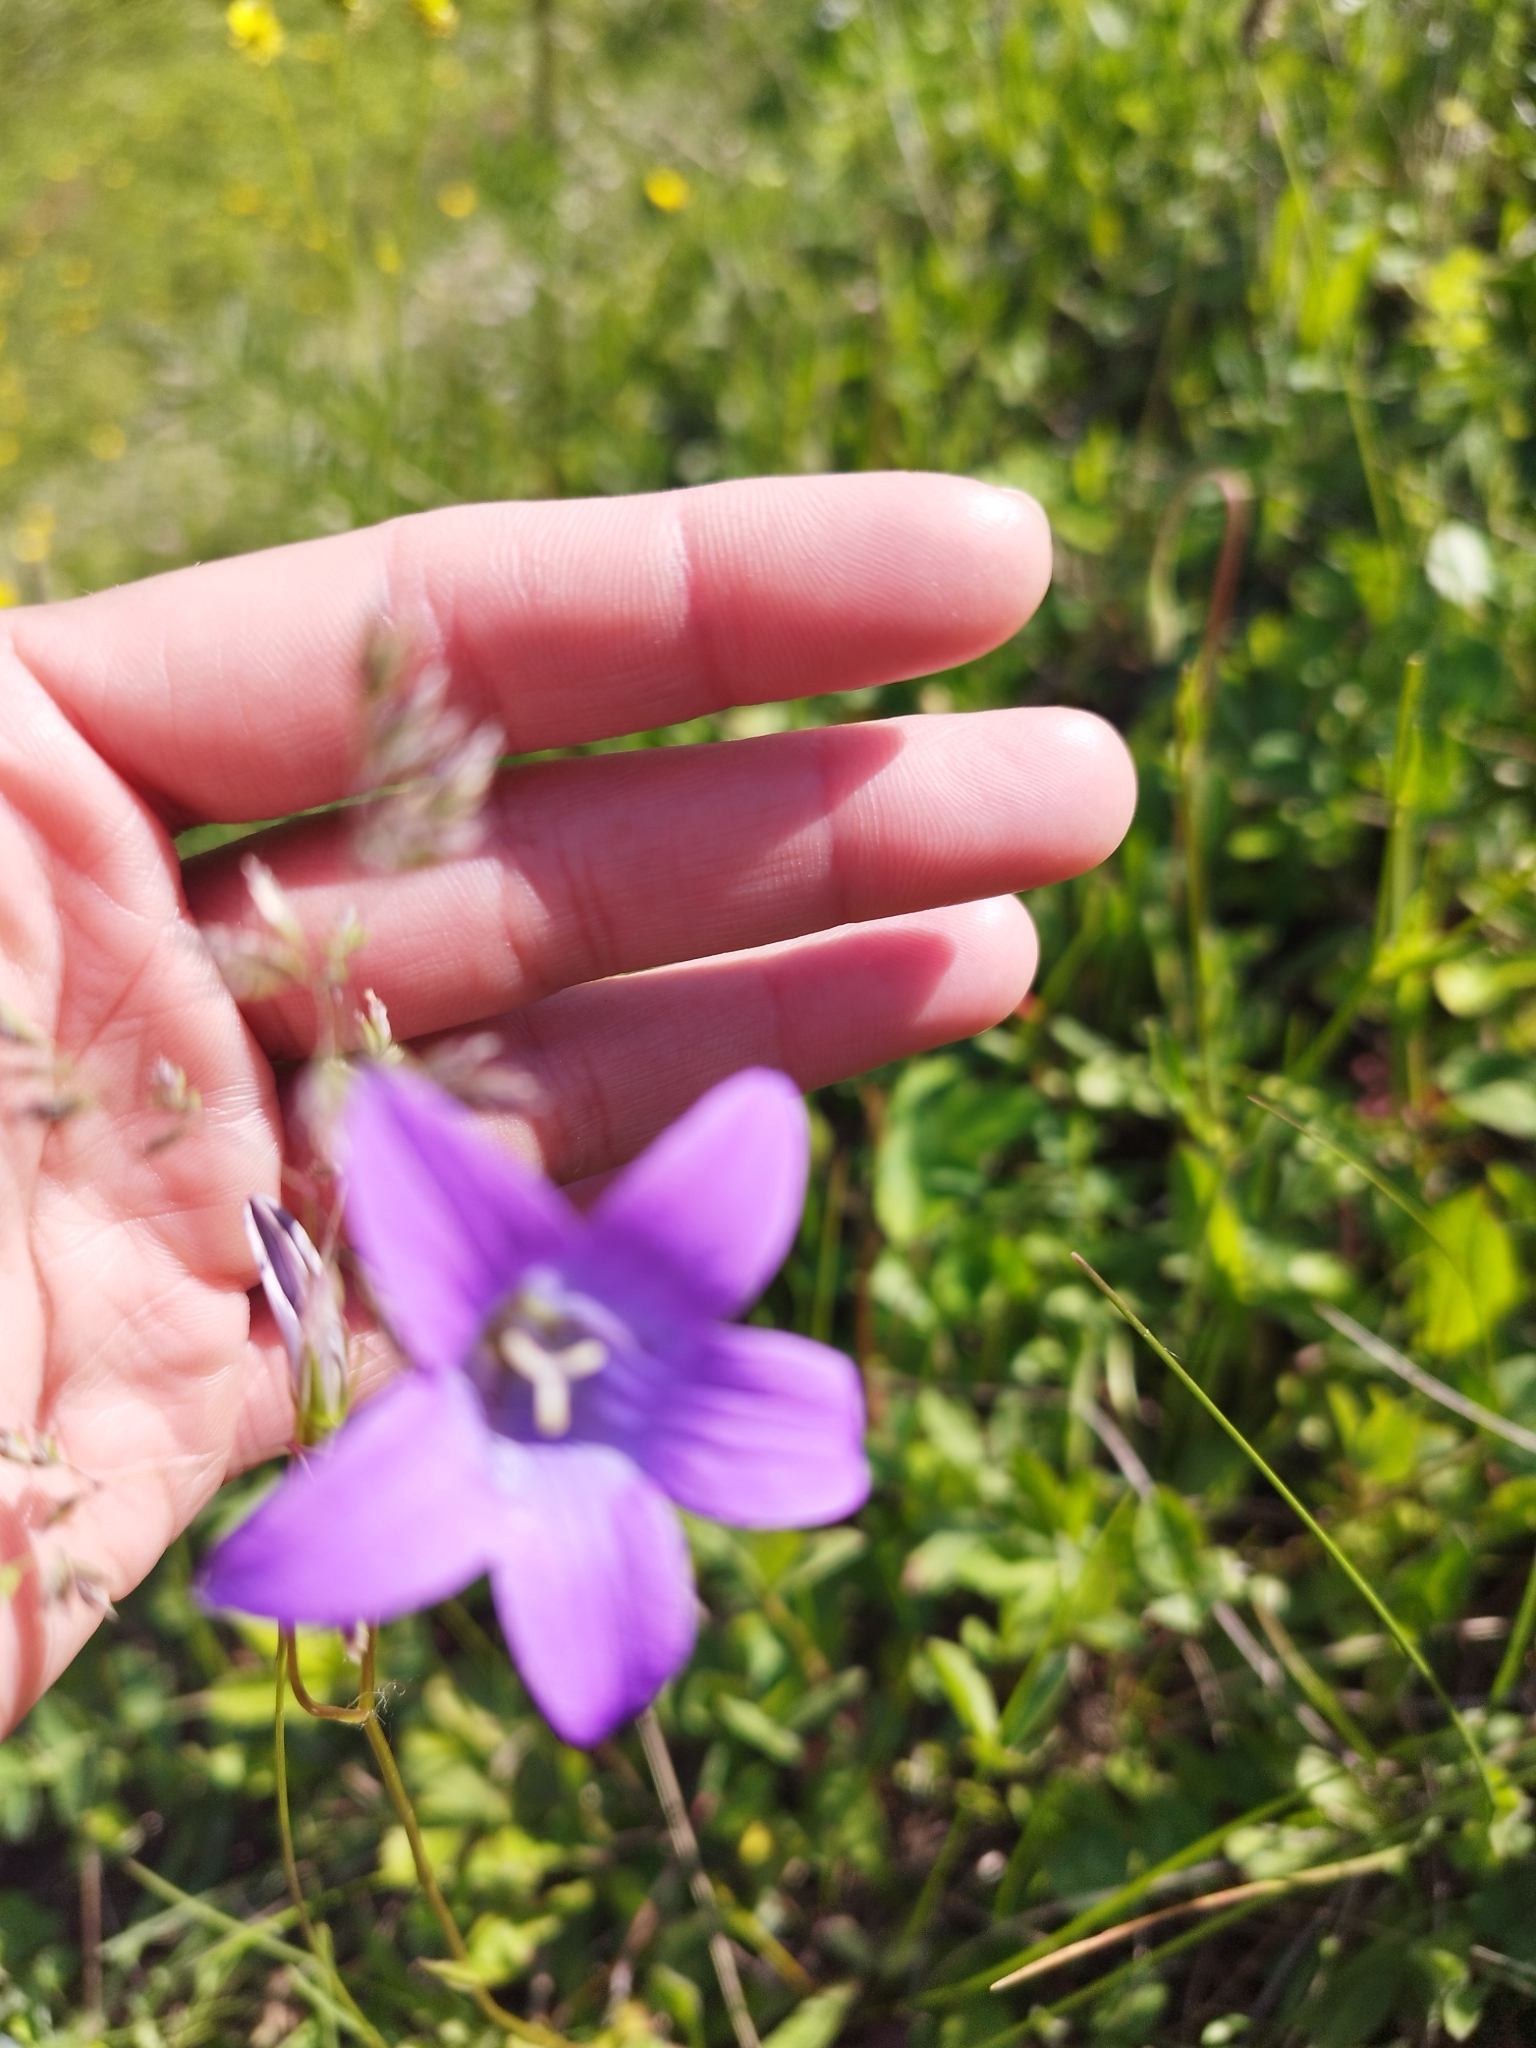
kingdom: Plantae
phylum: Tracheophyta
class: Magnoliopsida
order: Asterales
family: Campanulaceae
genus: Campanula
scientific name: Campanula patula
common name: Spreading bellflower
